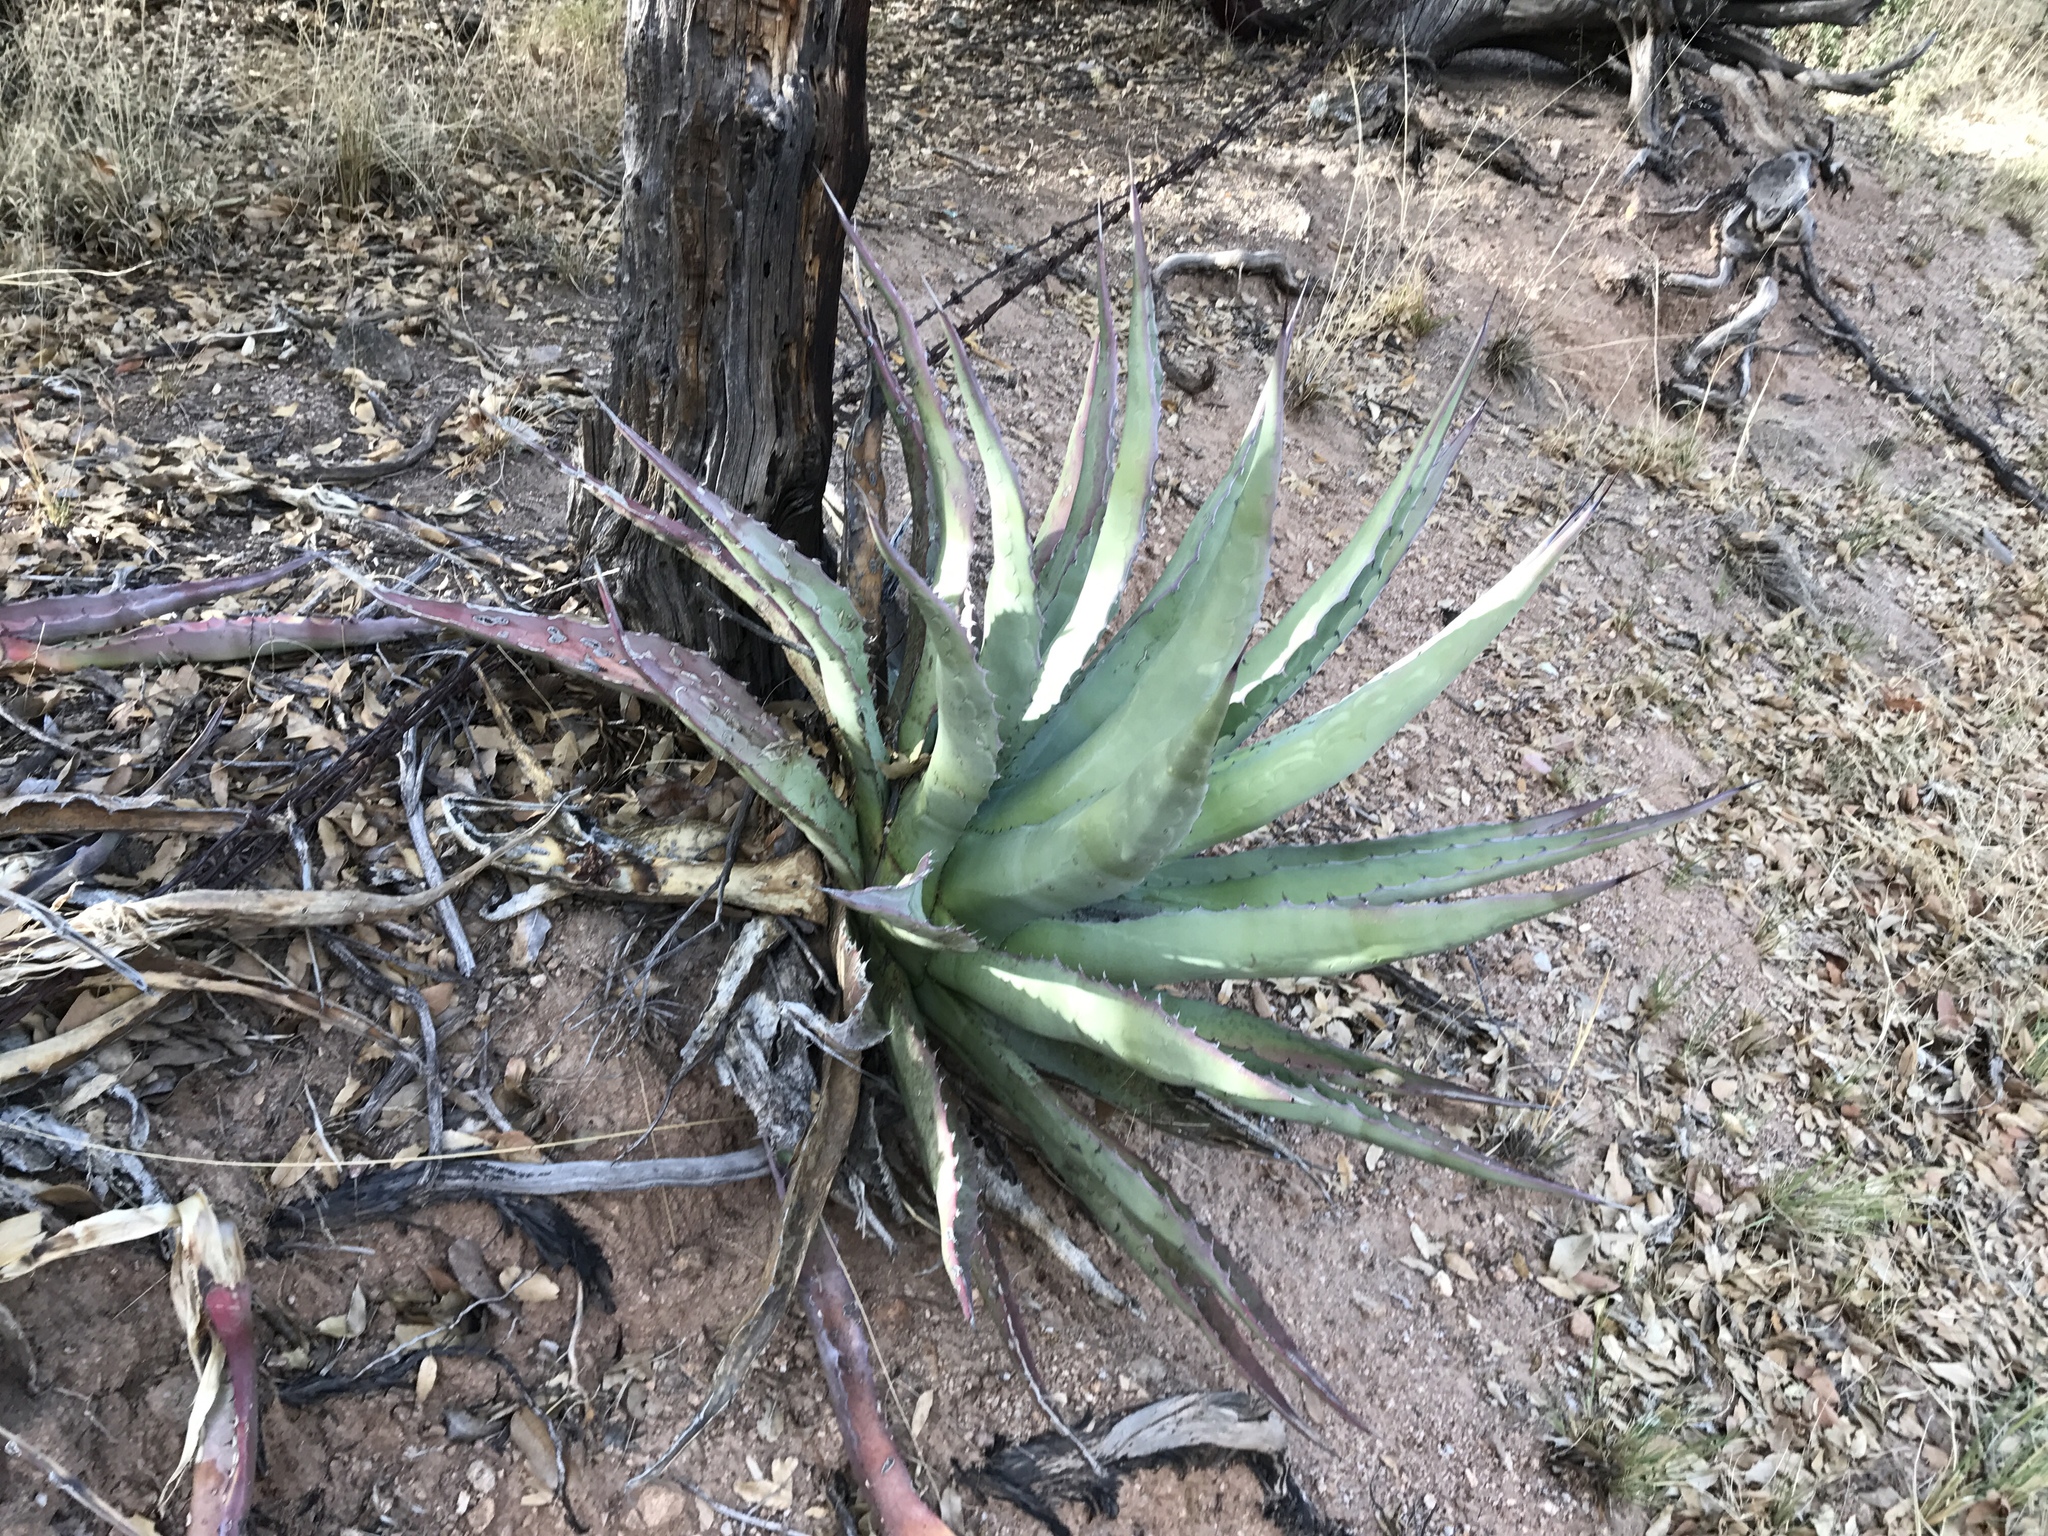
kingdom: Plantae
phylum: Tracheophyta
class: Liliopsida
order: Asparagales
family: Asparagaceae
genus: Agave
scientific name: Agave palmeri
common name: Palmer agave
